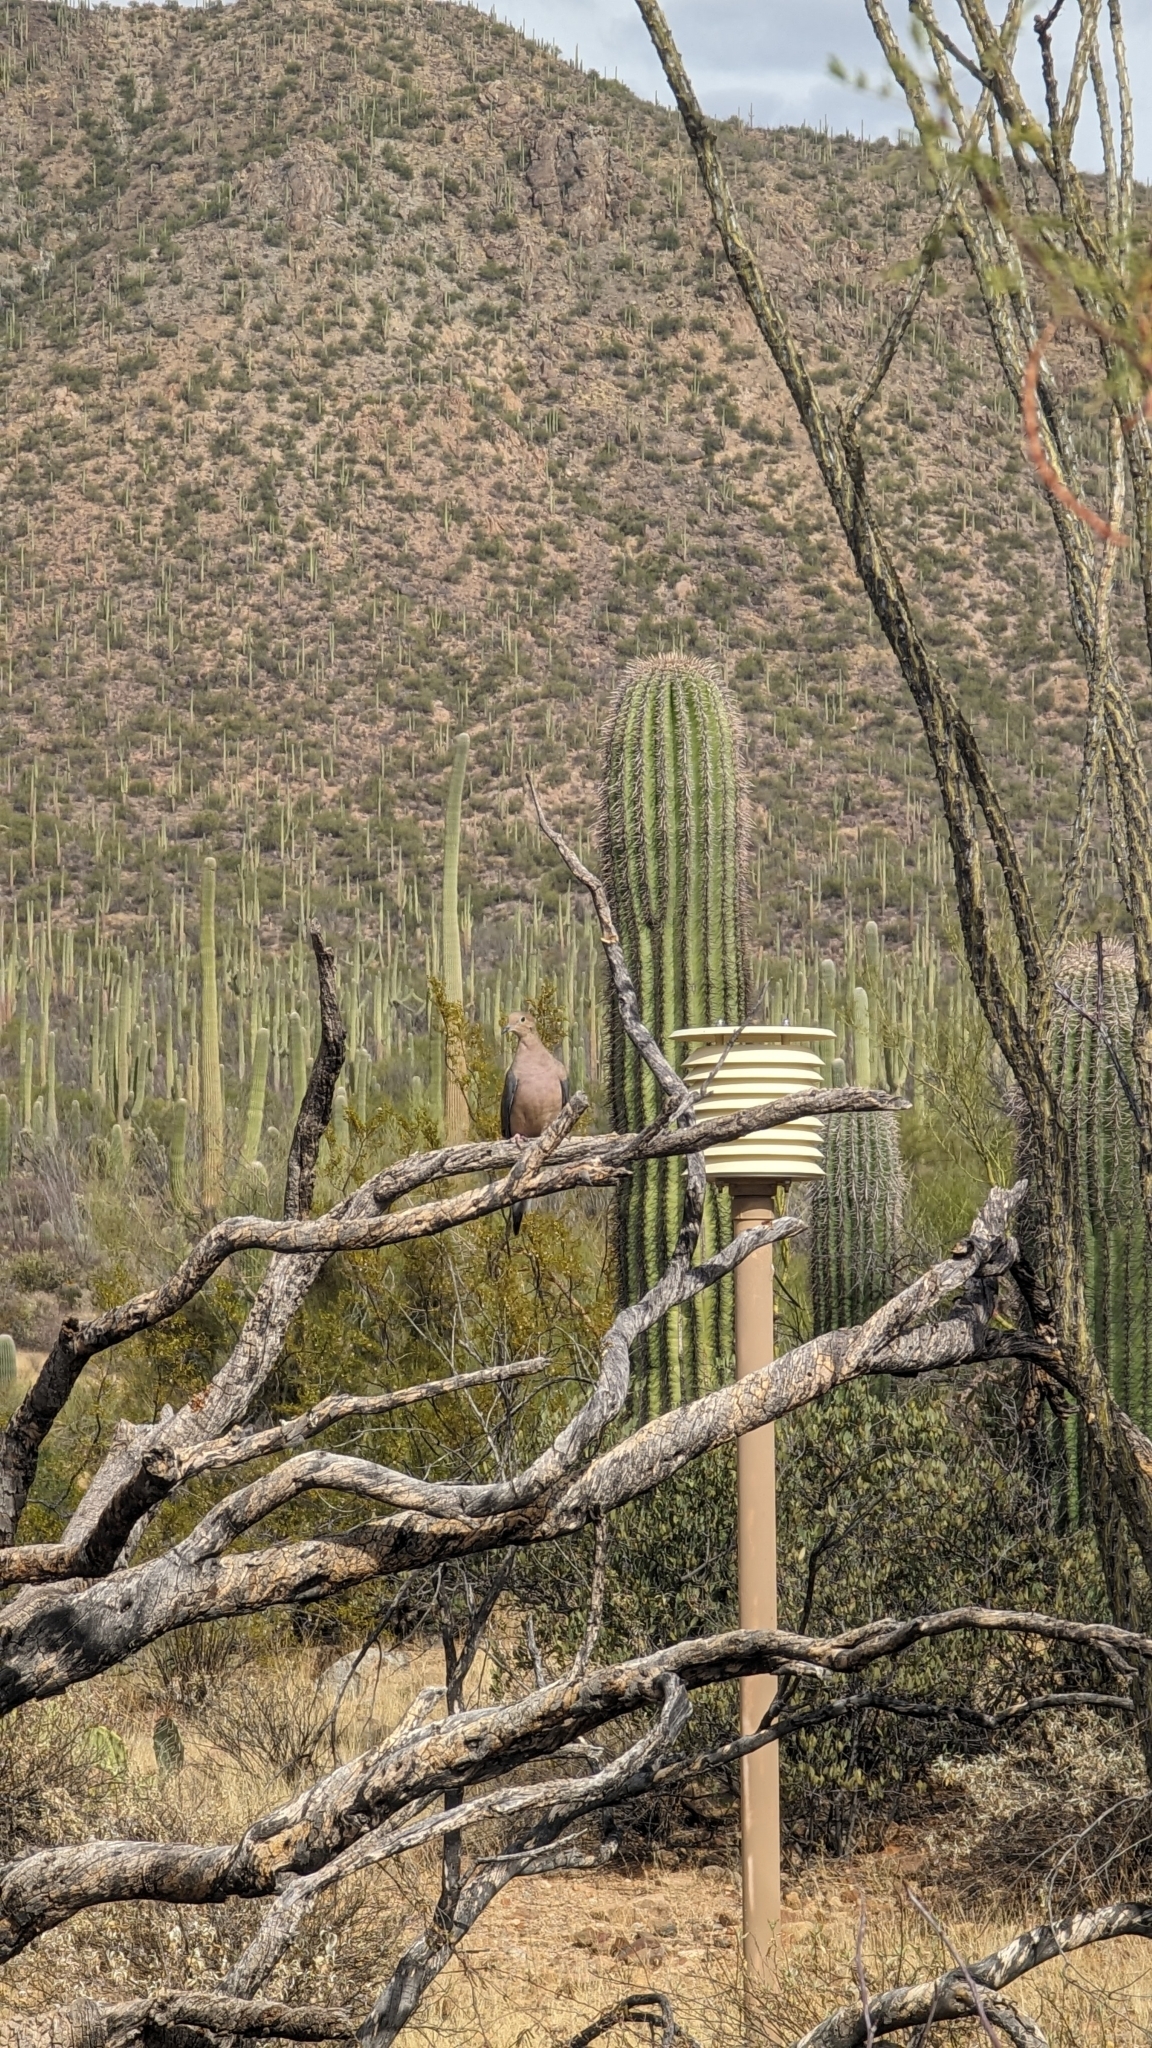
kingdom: Animalia
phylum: Chordata
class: Aves
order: Columbiformes
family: Columbidae
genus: Zenaida
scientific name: Zenaida macroura
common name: Mourning dove
